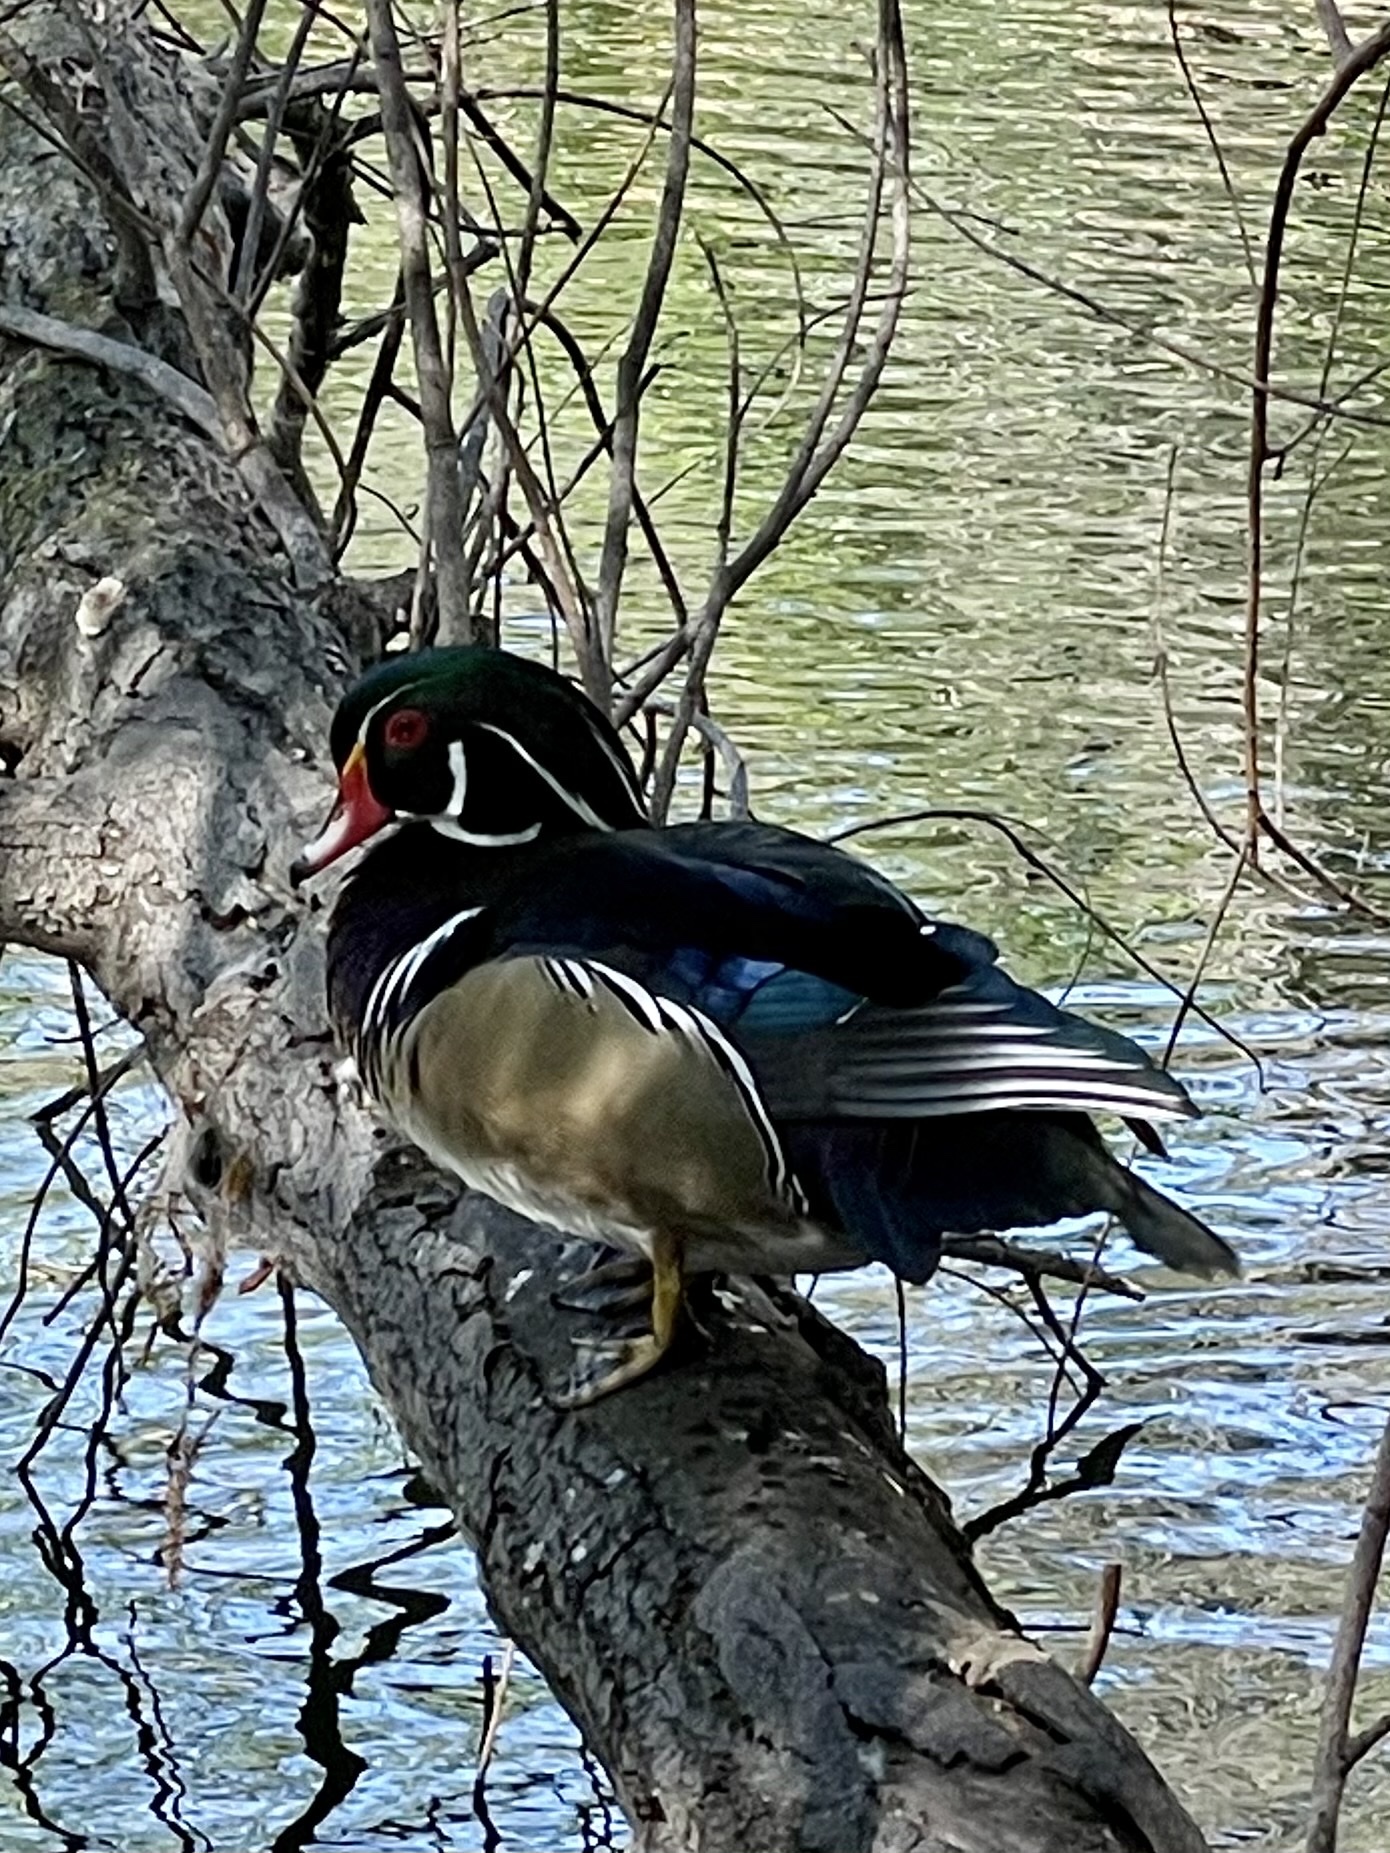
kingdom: Animalia
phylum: Chordata
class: Aves
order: Anseriformes
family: Anatidae
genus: Aix
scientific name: Aix sponsa
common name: Wood duck
